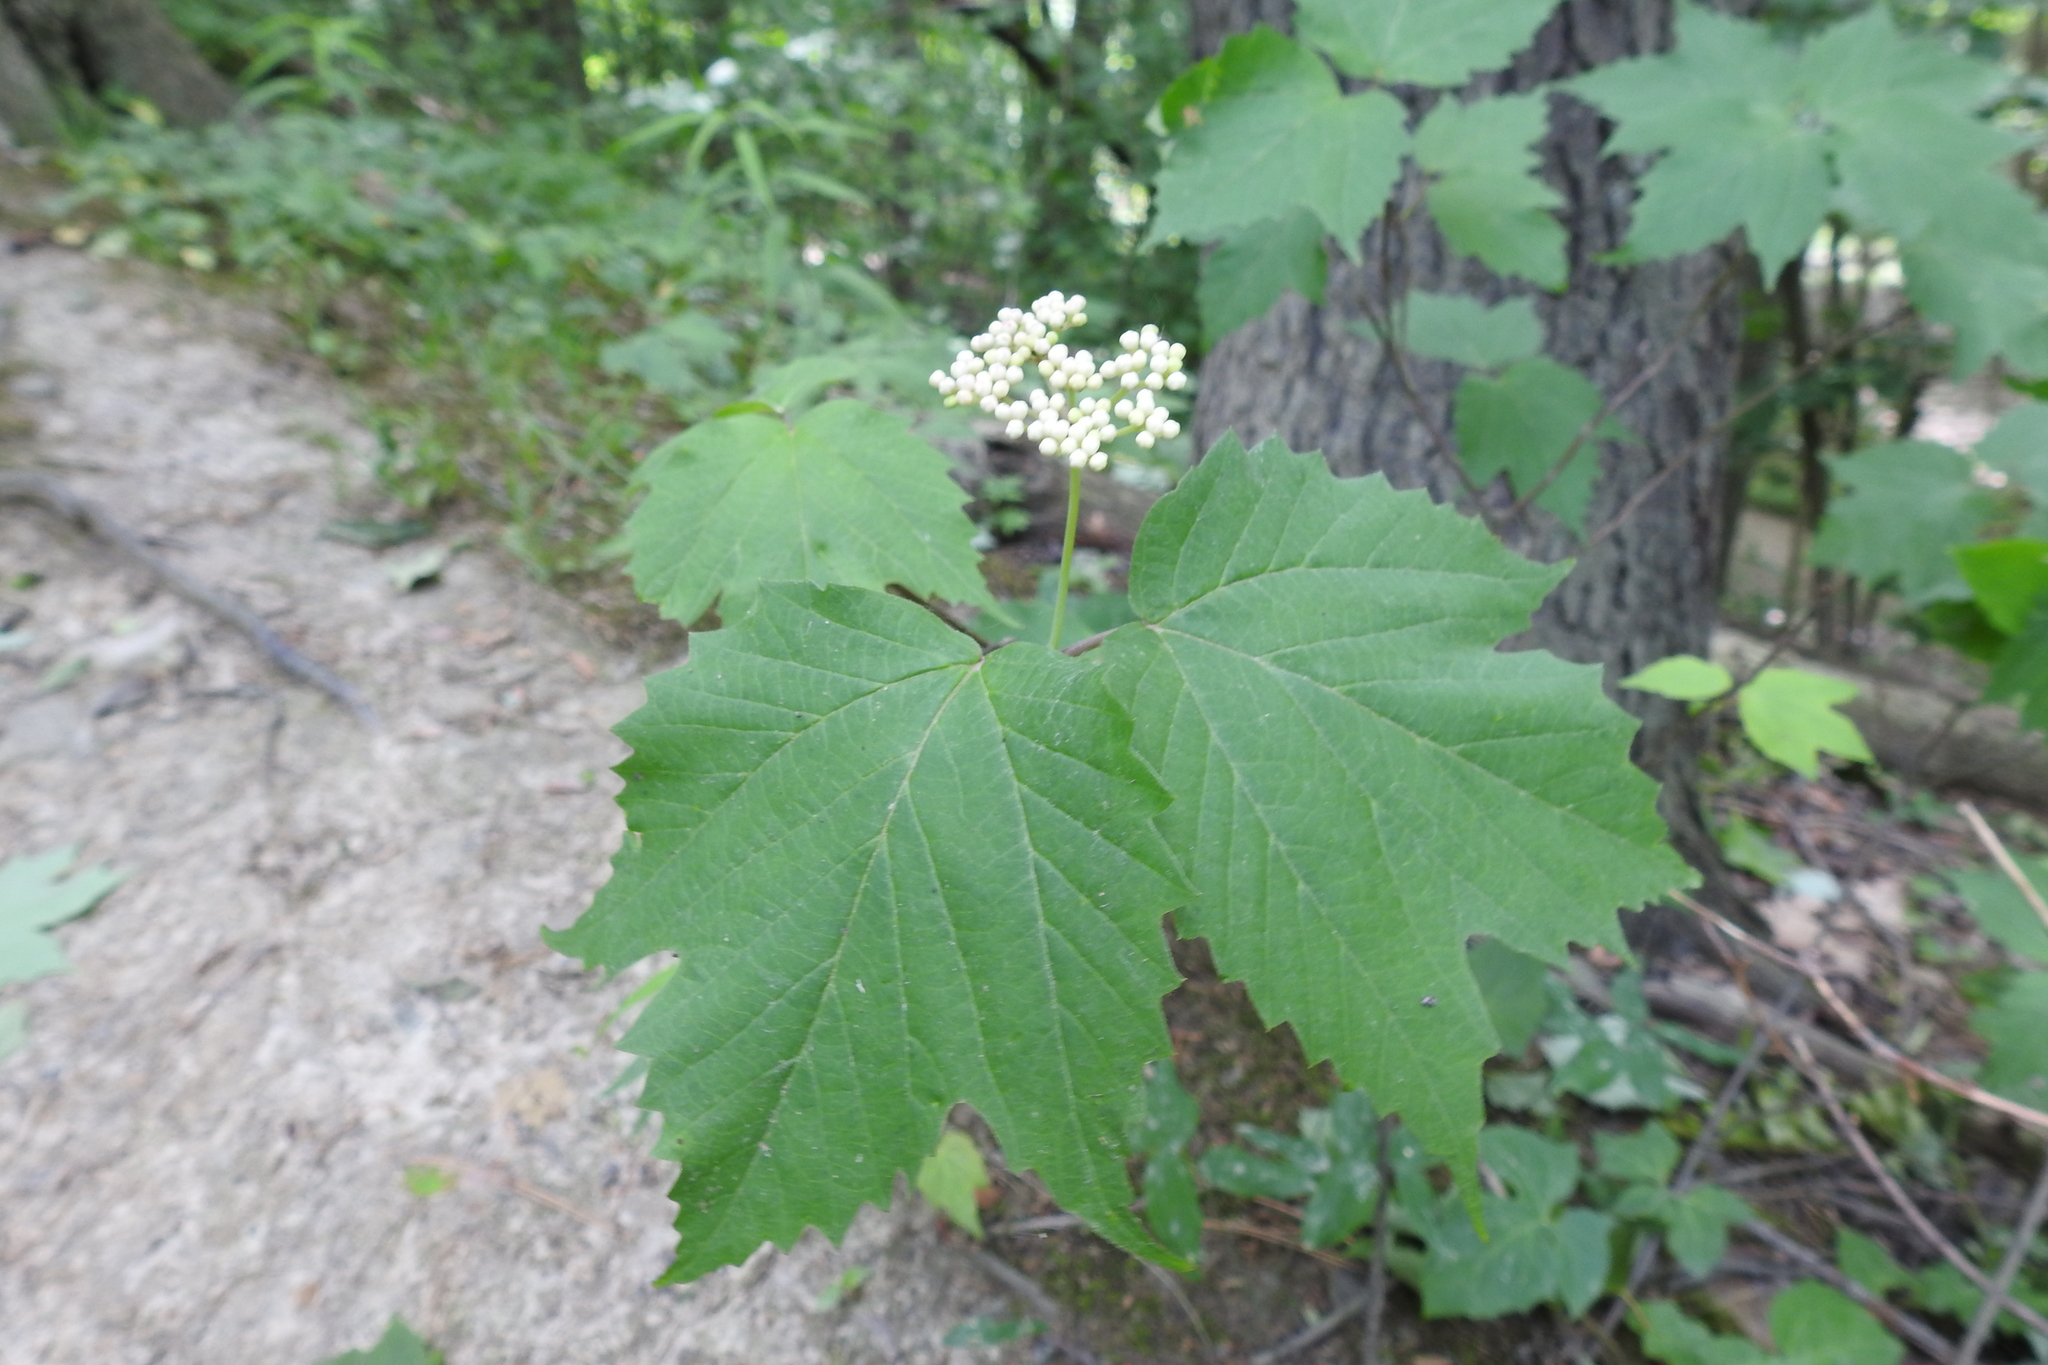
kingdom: Plantae
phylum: Tracheophyta
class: Magnoliopsida
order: Dipsacales
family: Viburnaceae
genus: Viburnum
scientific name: Viburnum acerifolium
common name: Dockmackie
